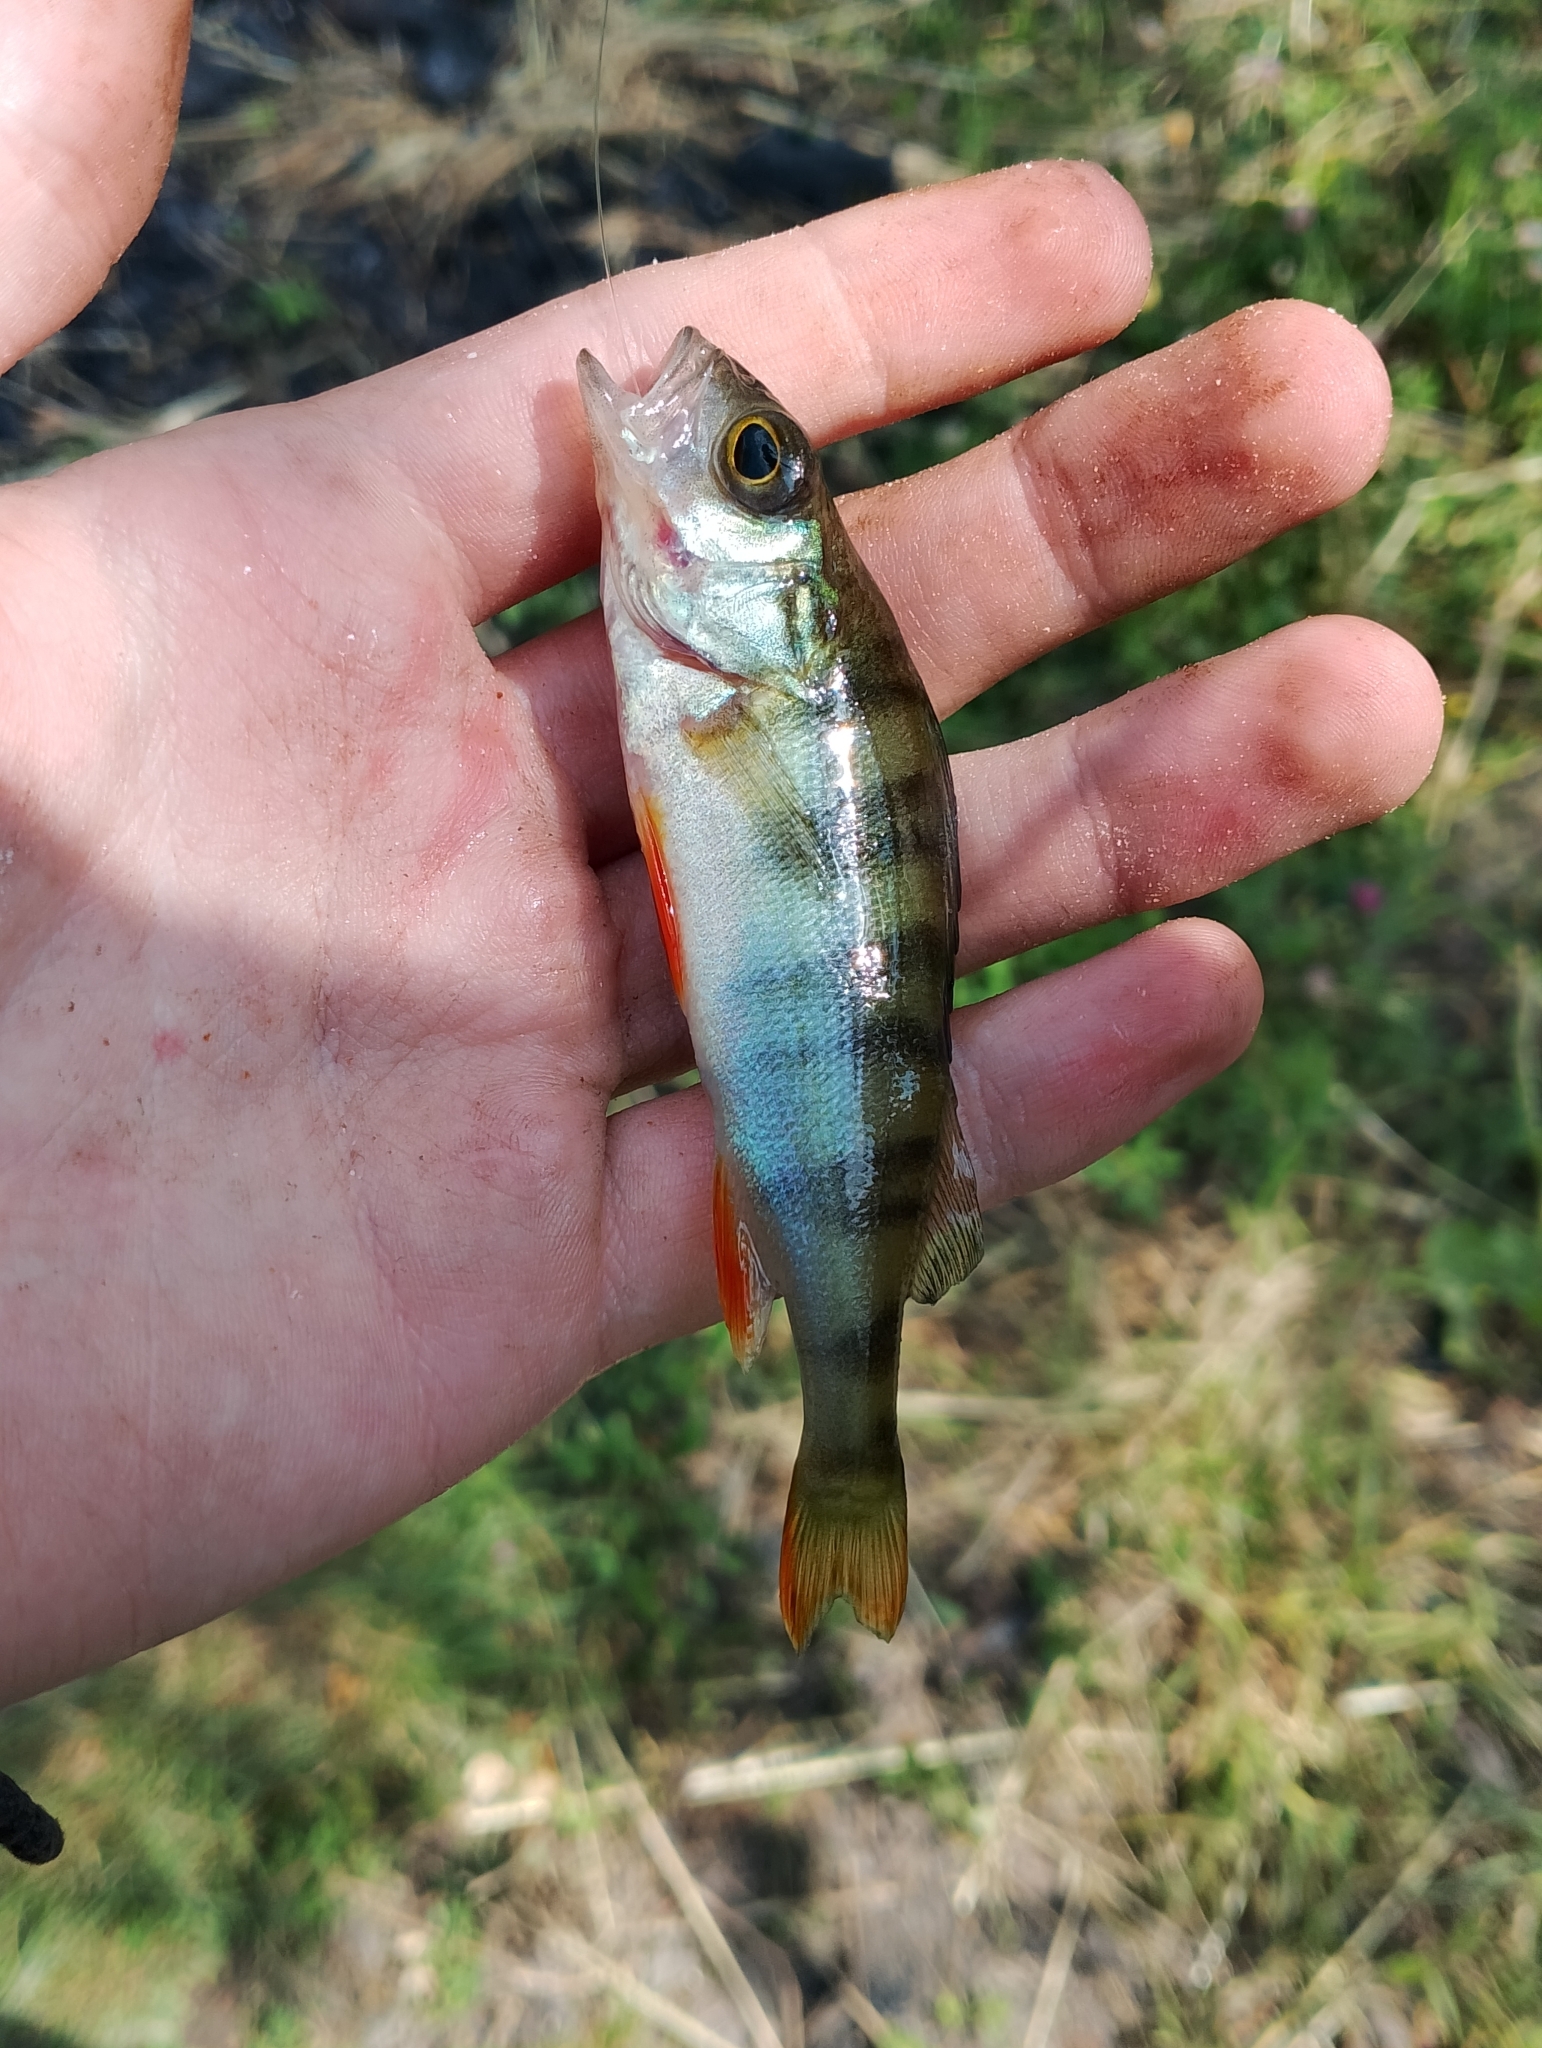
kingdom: Animalia
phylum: Chordata
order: Perciformes
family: Percidae
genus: Perca
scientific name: Perca fluviatilis
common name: Perch
